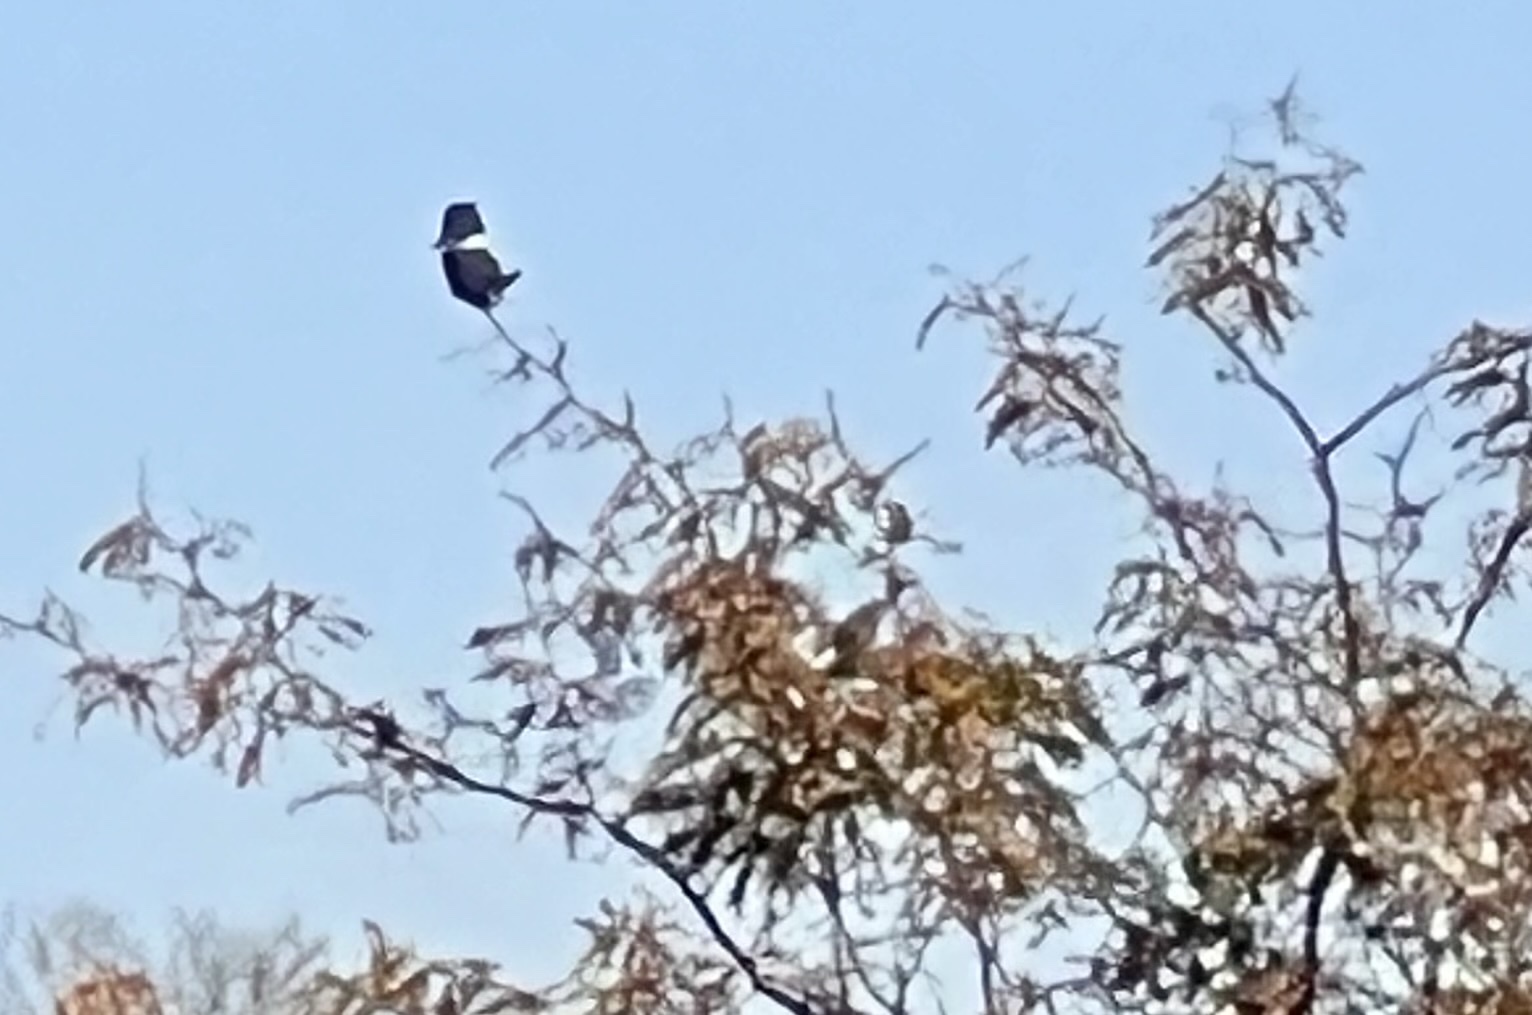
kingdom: Animalia
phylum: Chordata
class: Aves
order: Coraciiformes
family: Alcedinidae
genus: Megaceryle
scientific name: Megaceryle alcyon
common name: Belted kingfisher
